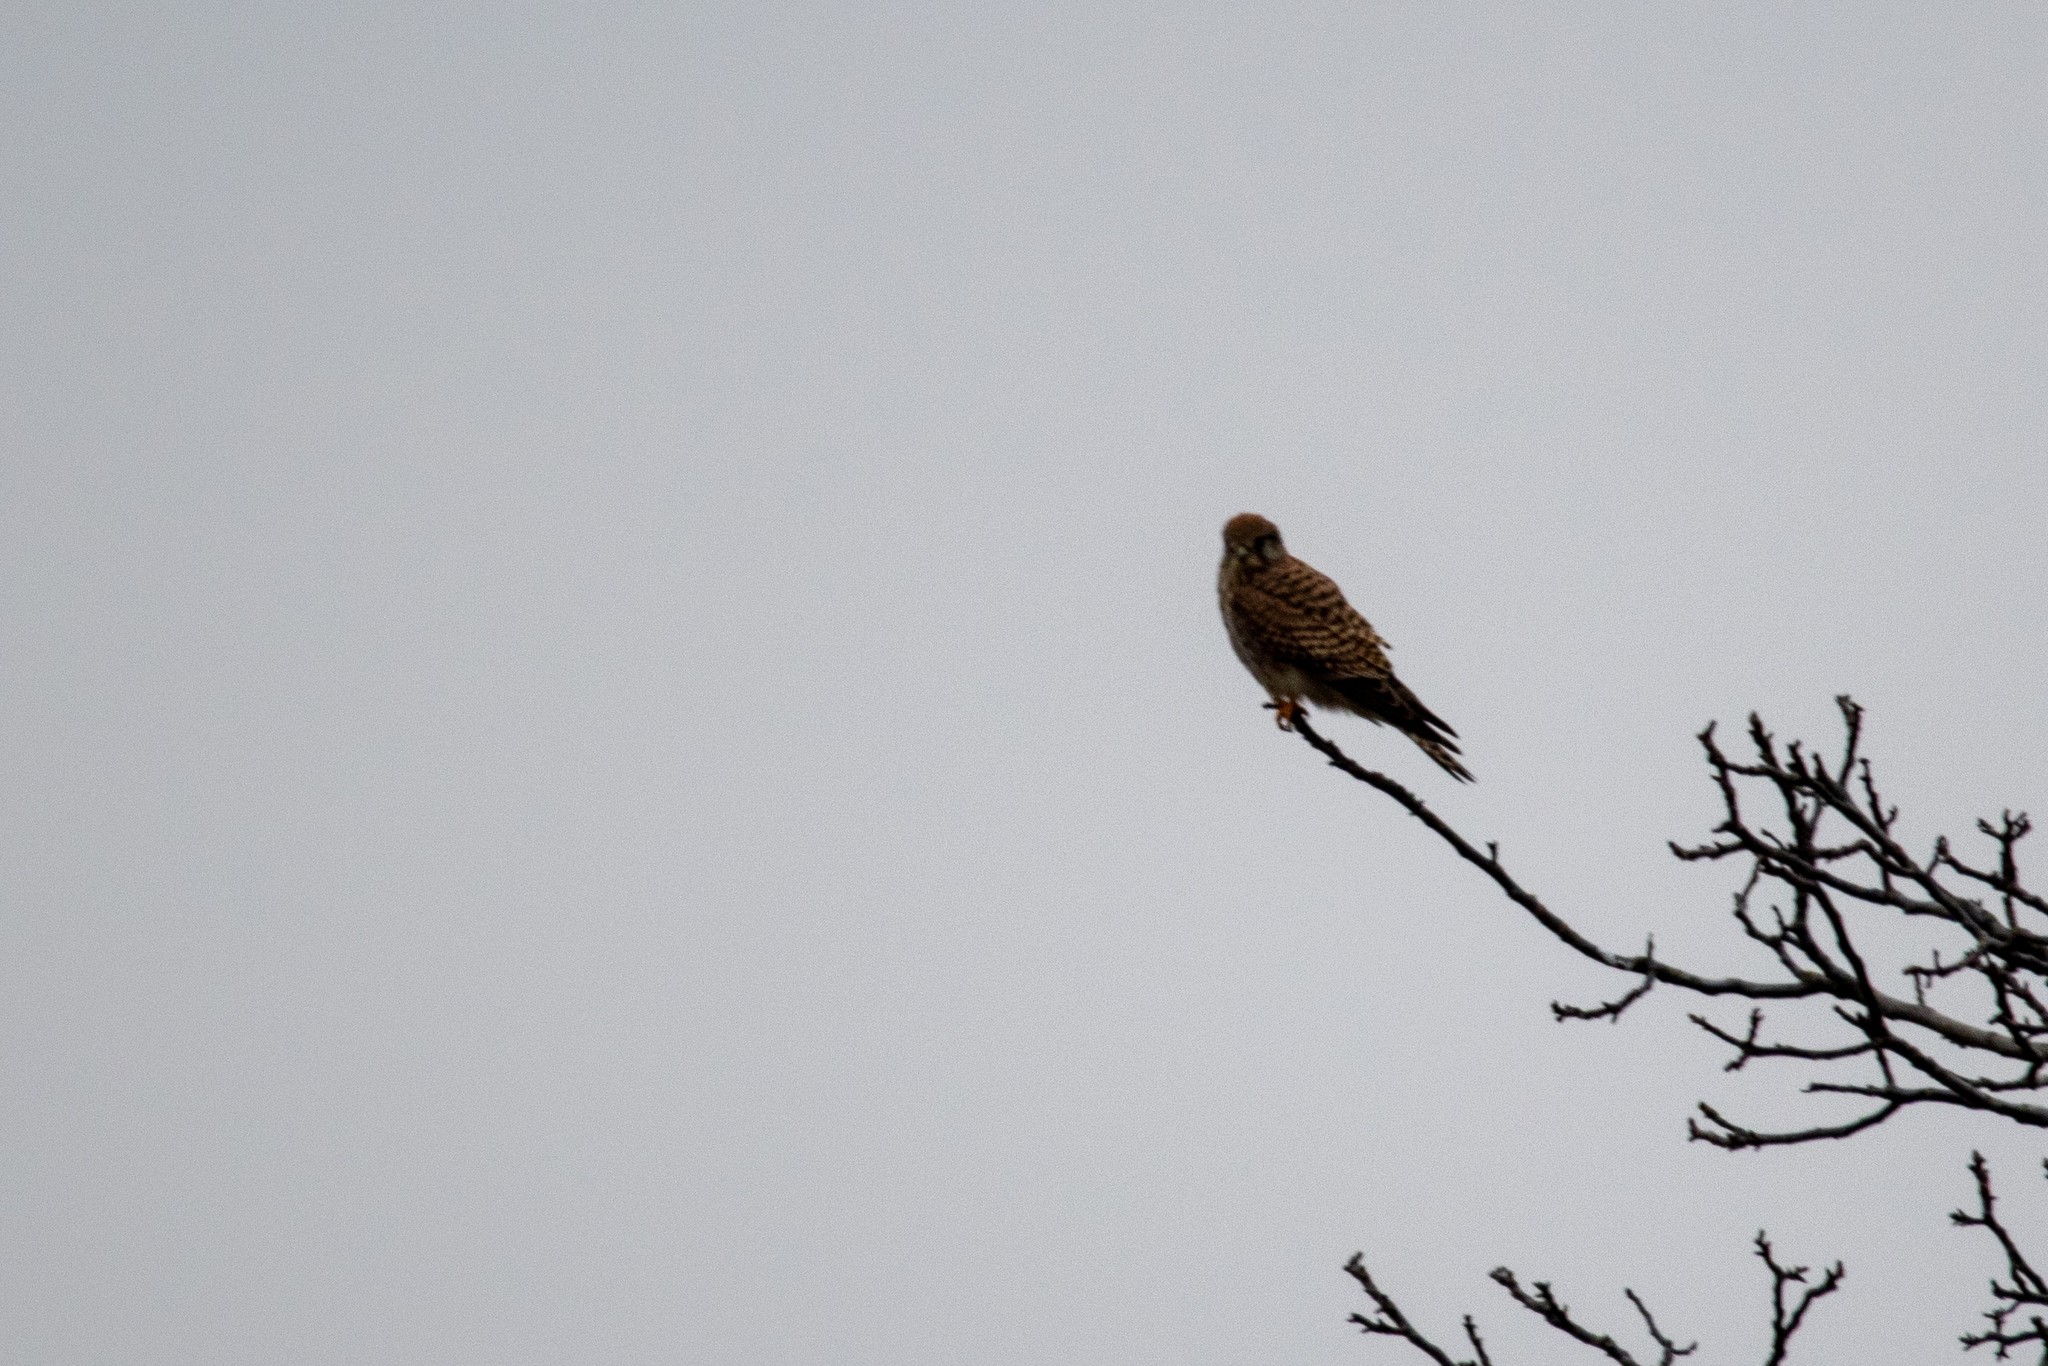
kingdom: Animalia
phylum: Chordata
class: Aves
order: Falconiformes
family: Falconidae
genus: Falco
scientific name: Falco tinnunculus
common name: Common kestrel
